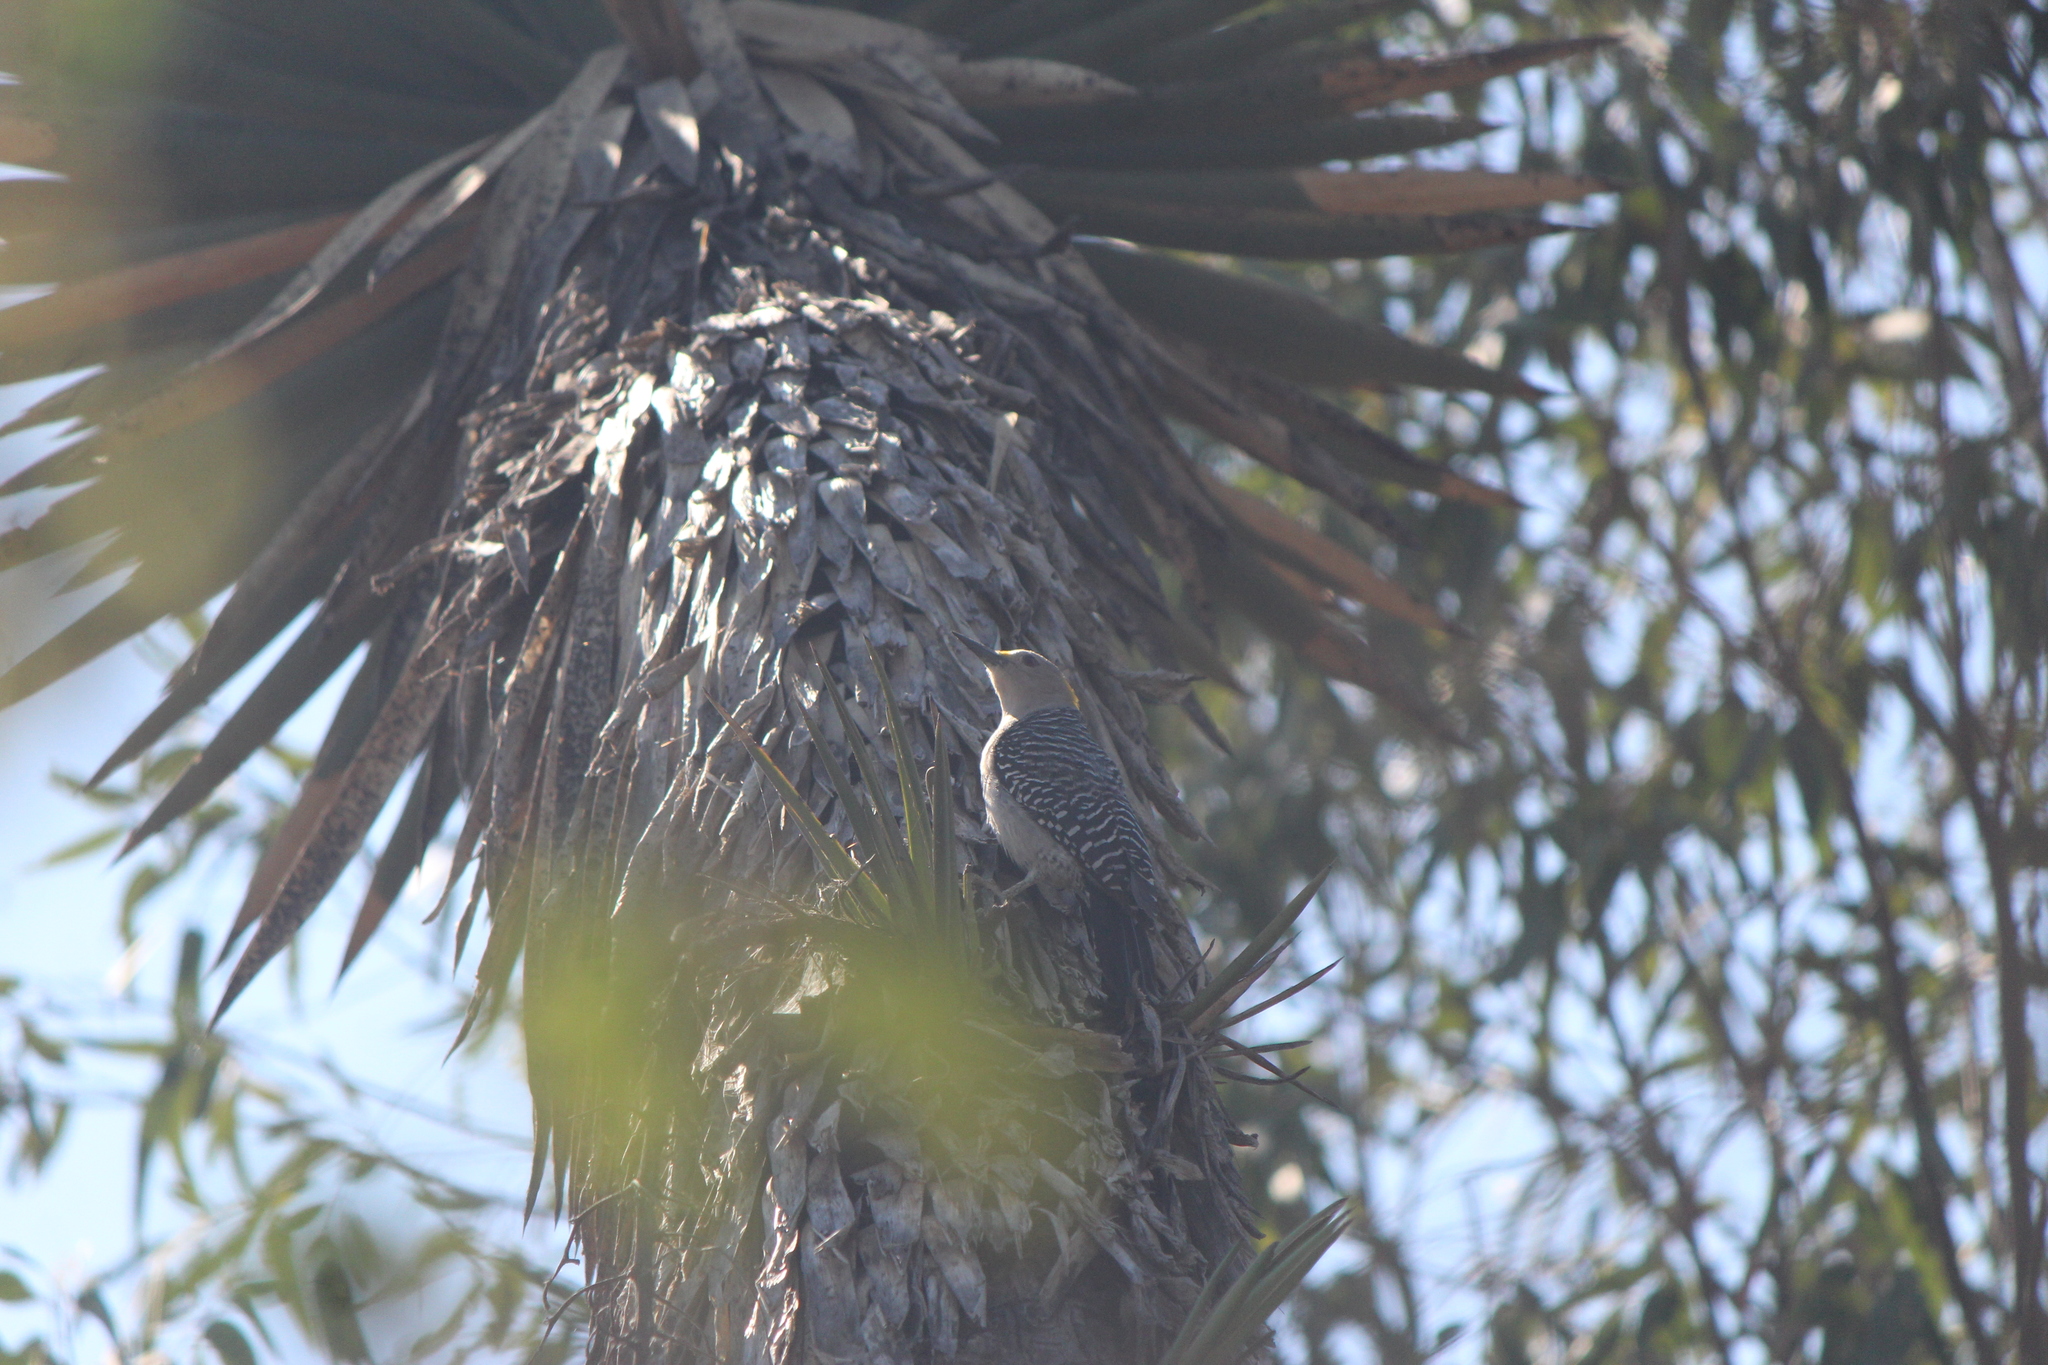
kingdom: Animalia
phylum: Chordata
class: Aves
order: Piciformes
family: Picidae
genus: Melanerpes
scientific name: Melanerpes aurifrons
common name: Golden-fronted woodpecker
